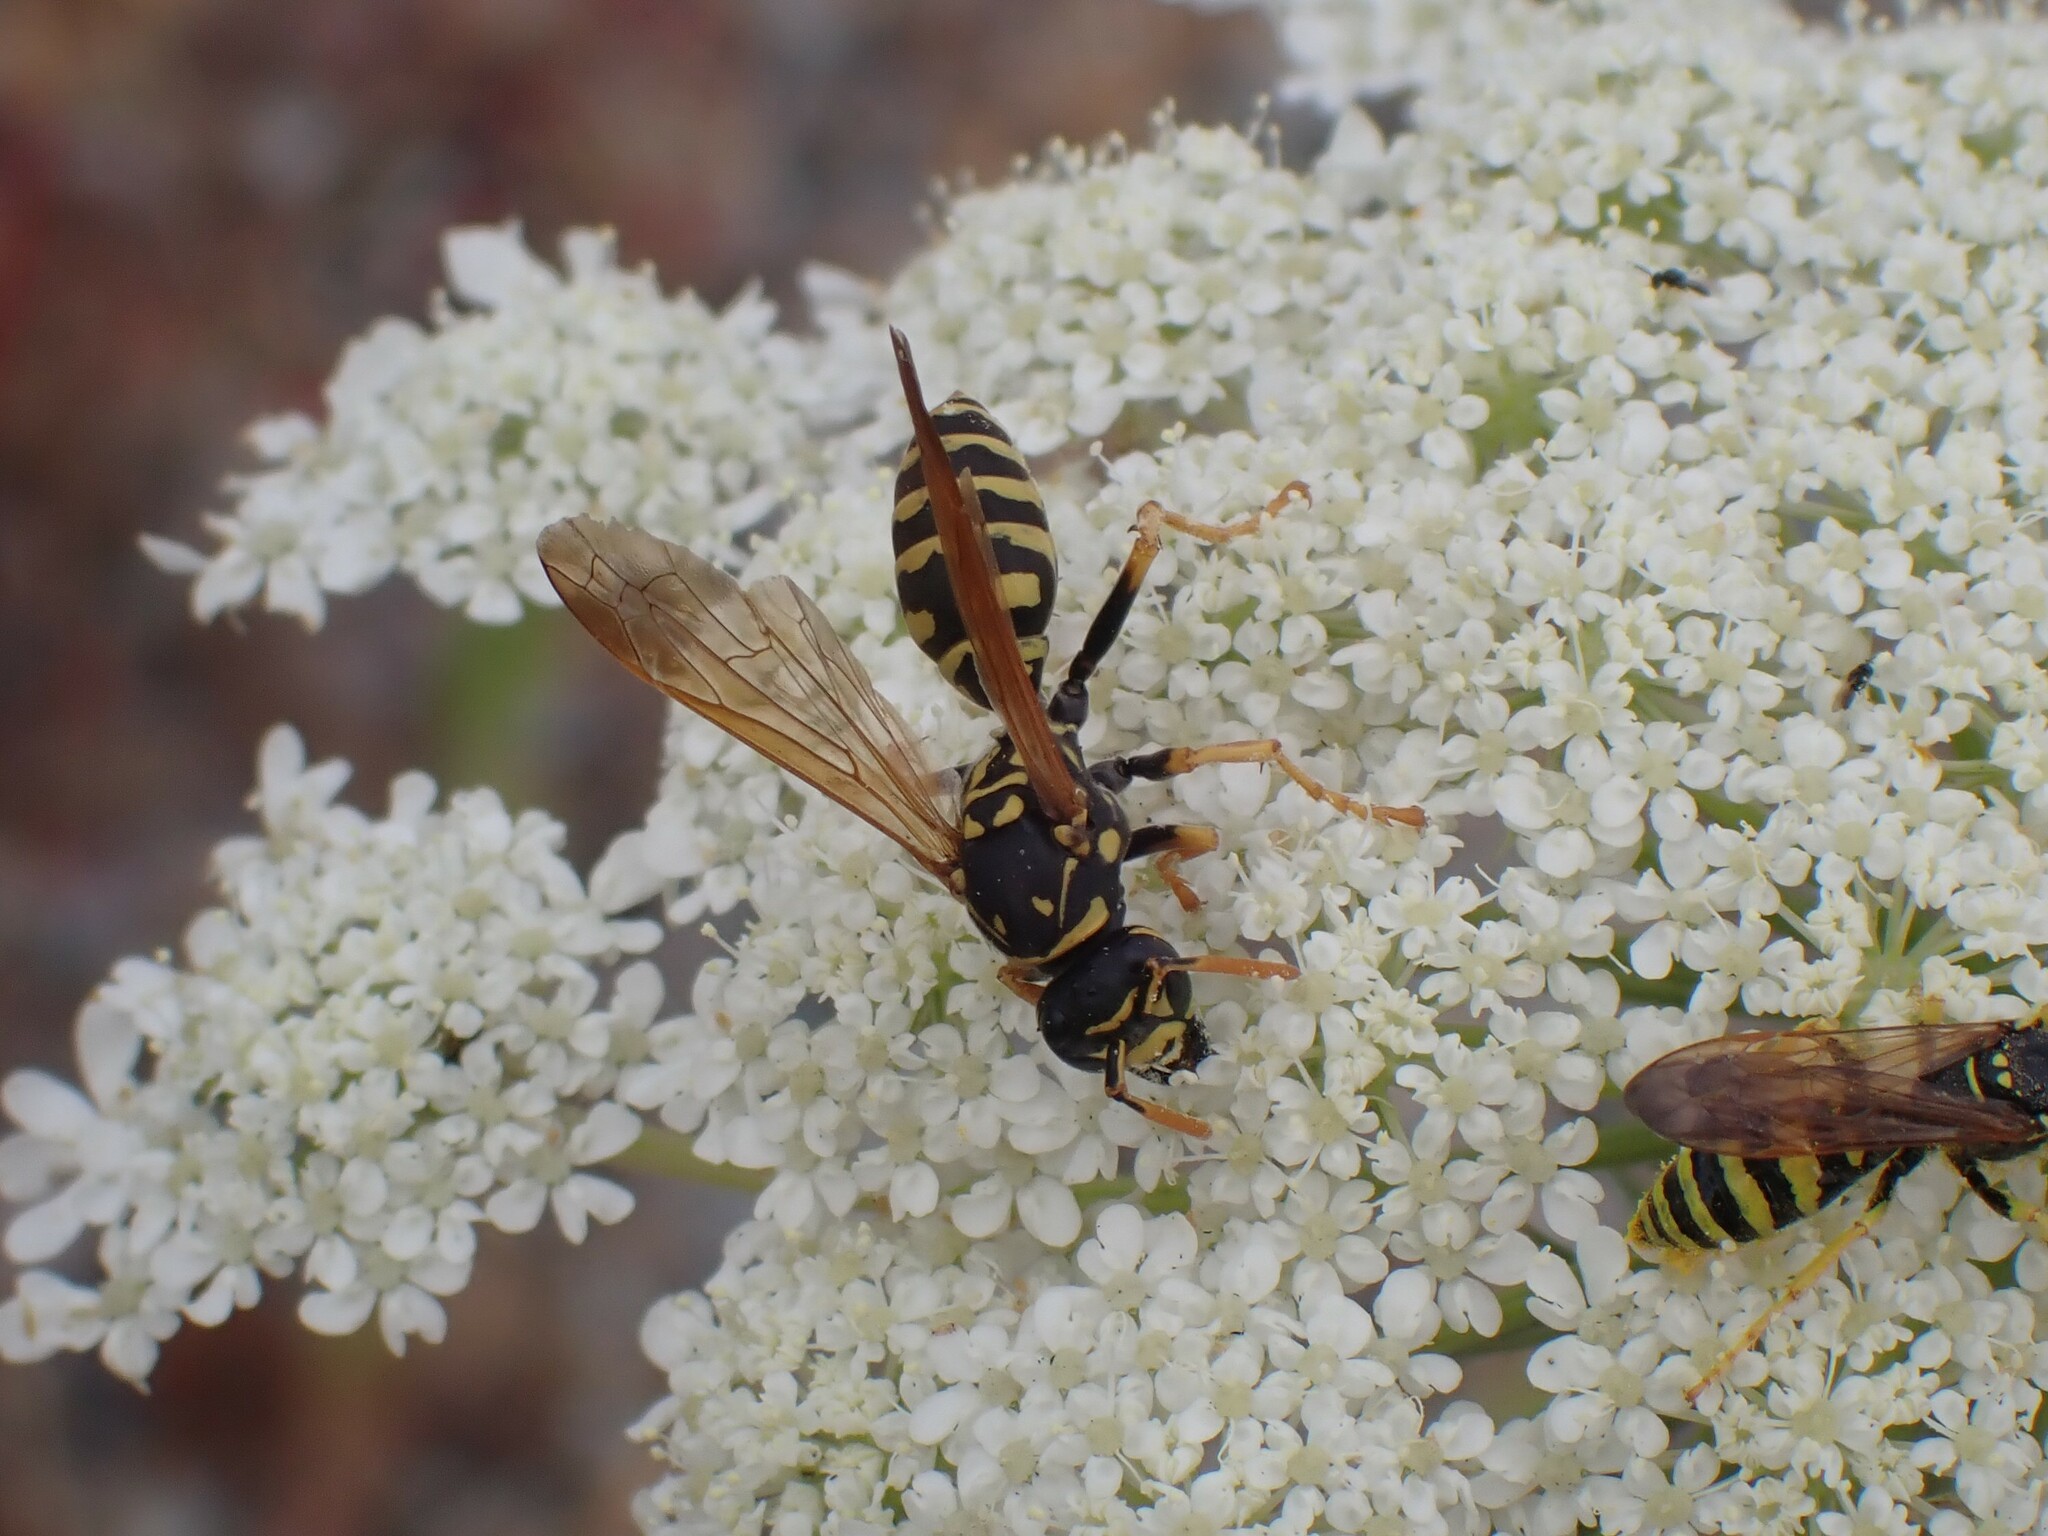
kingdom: Animalia
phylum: Arthropoda
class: Insecta
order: Hymenoptera
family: Eumenidae
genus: Polistes
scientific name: Polistes dominula
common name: Paper wasp
